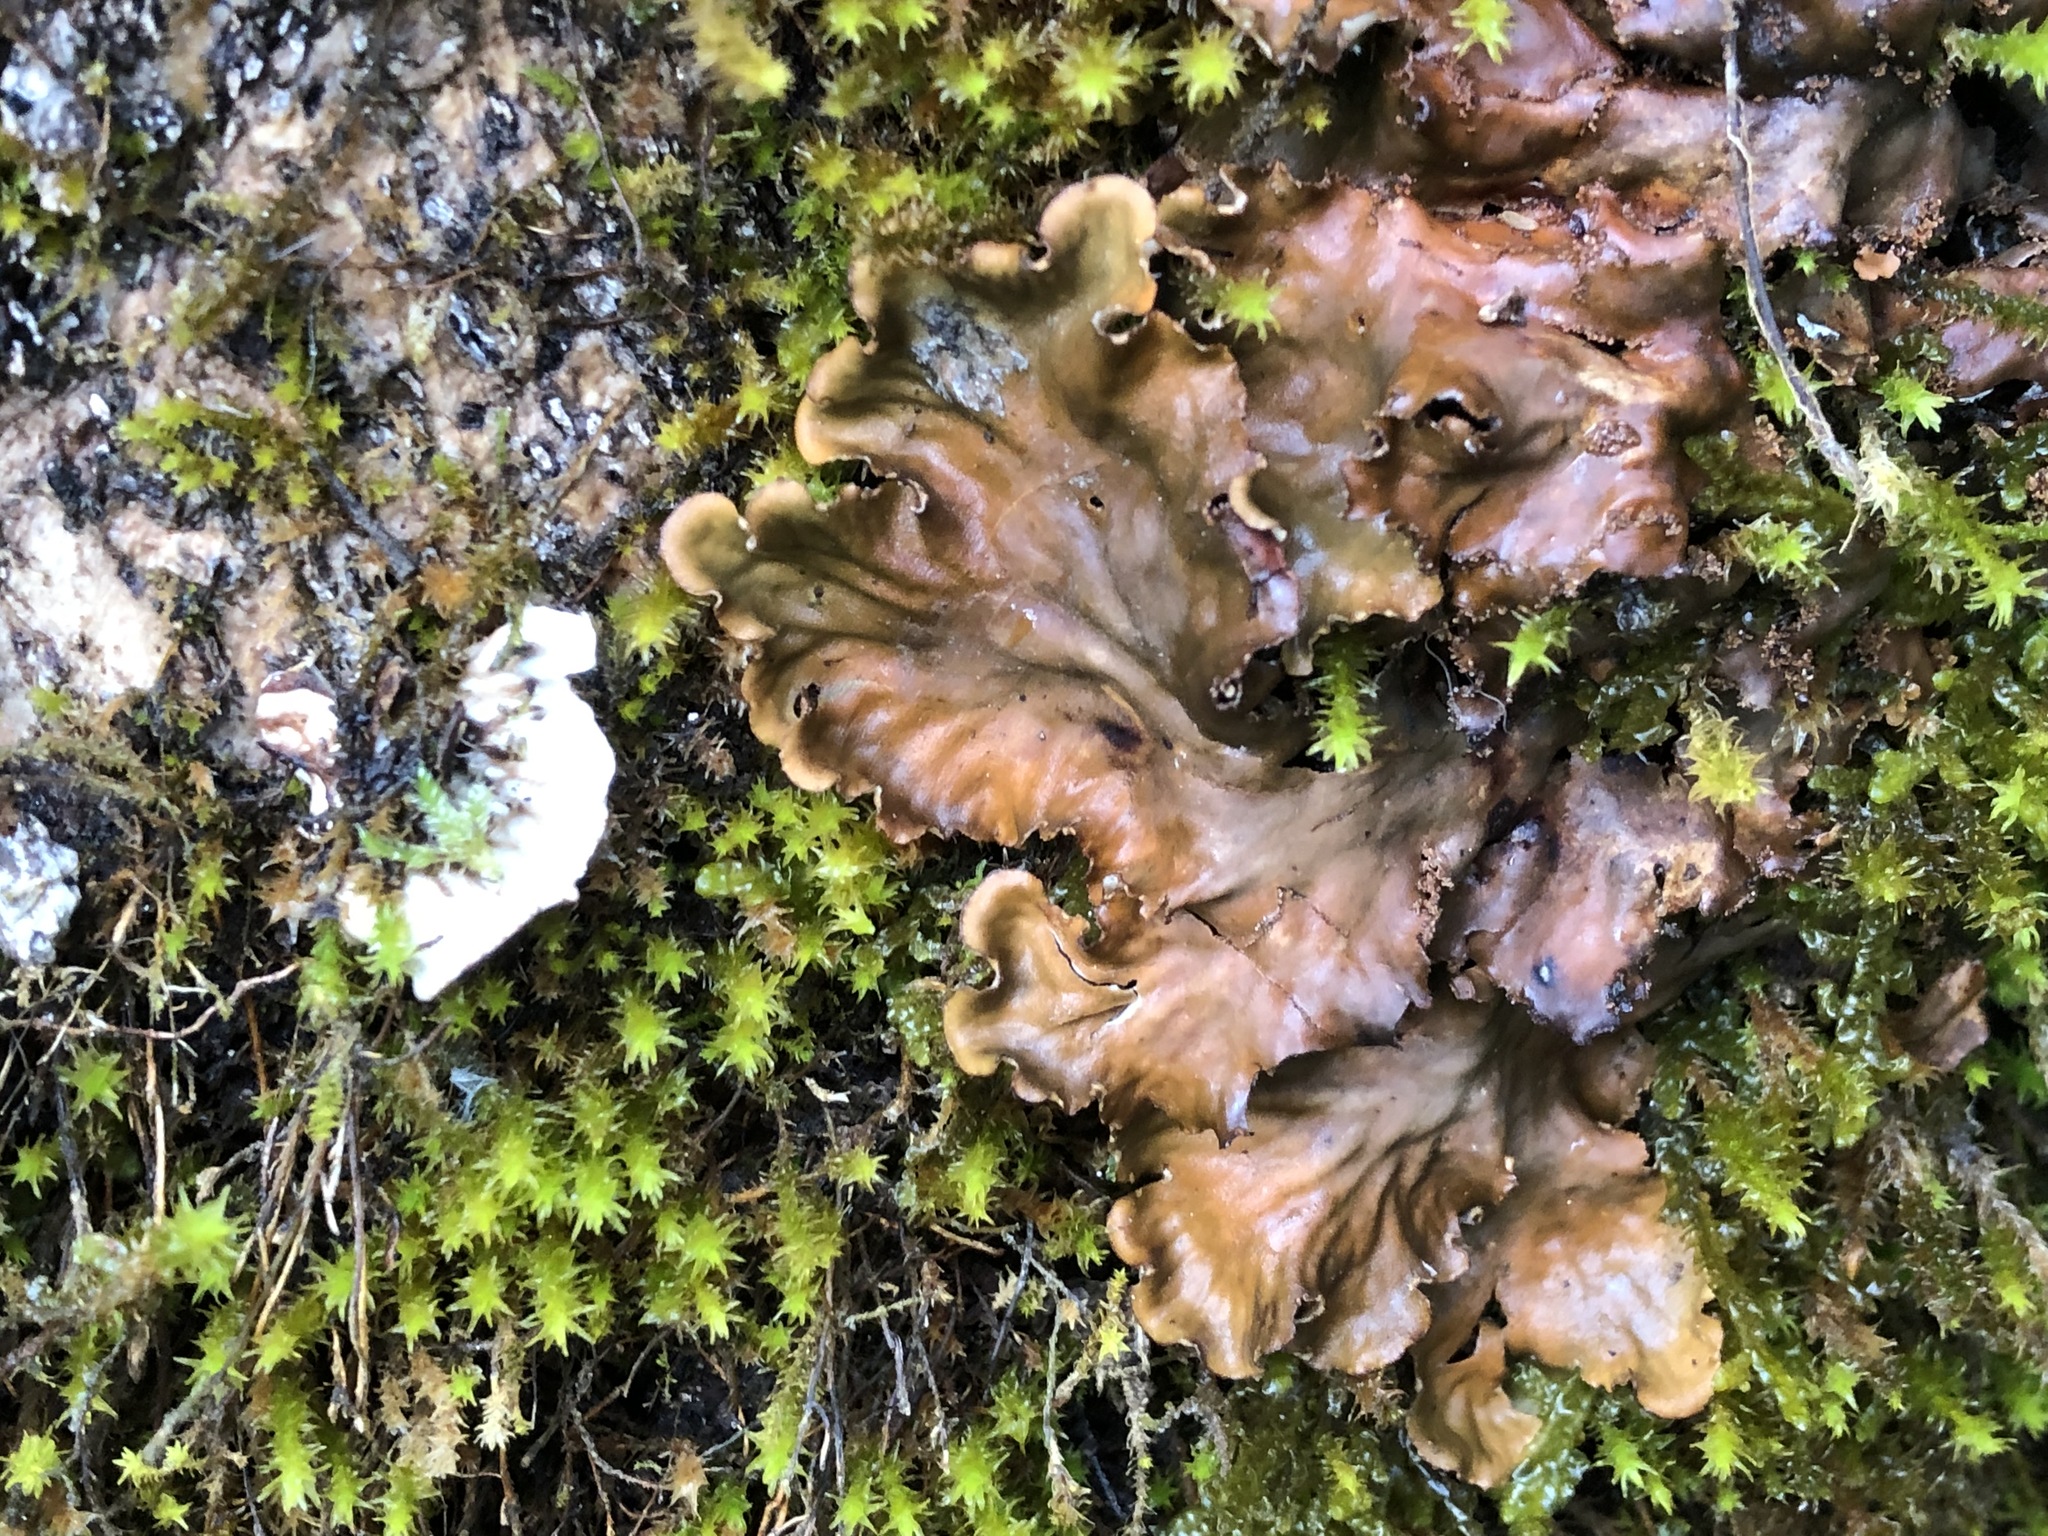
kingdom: Fungi
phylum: Ascomycota
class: Lecanoromycetes
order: Peltigerales
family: Peltigeraceae
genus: Peltigera
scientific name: Peltigera praetextata
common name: Scaly dog-lichen
